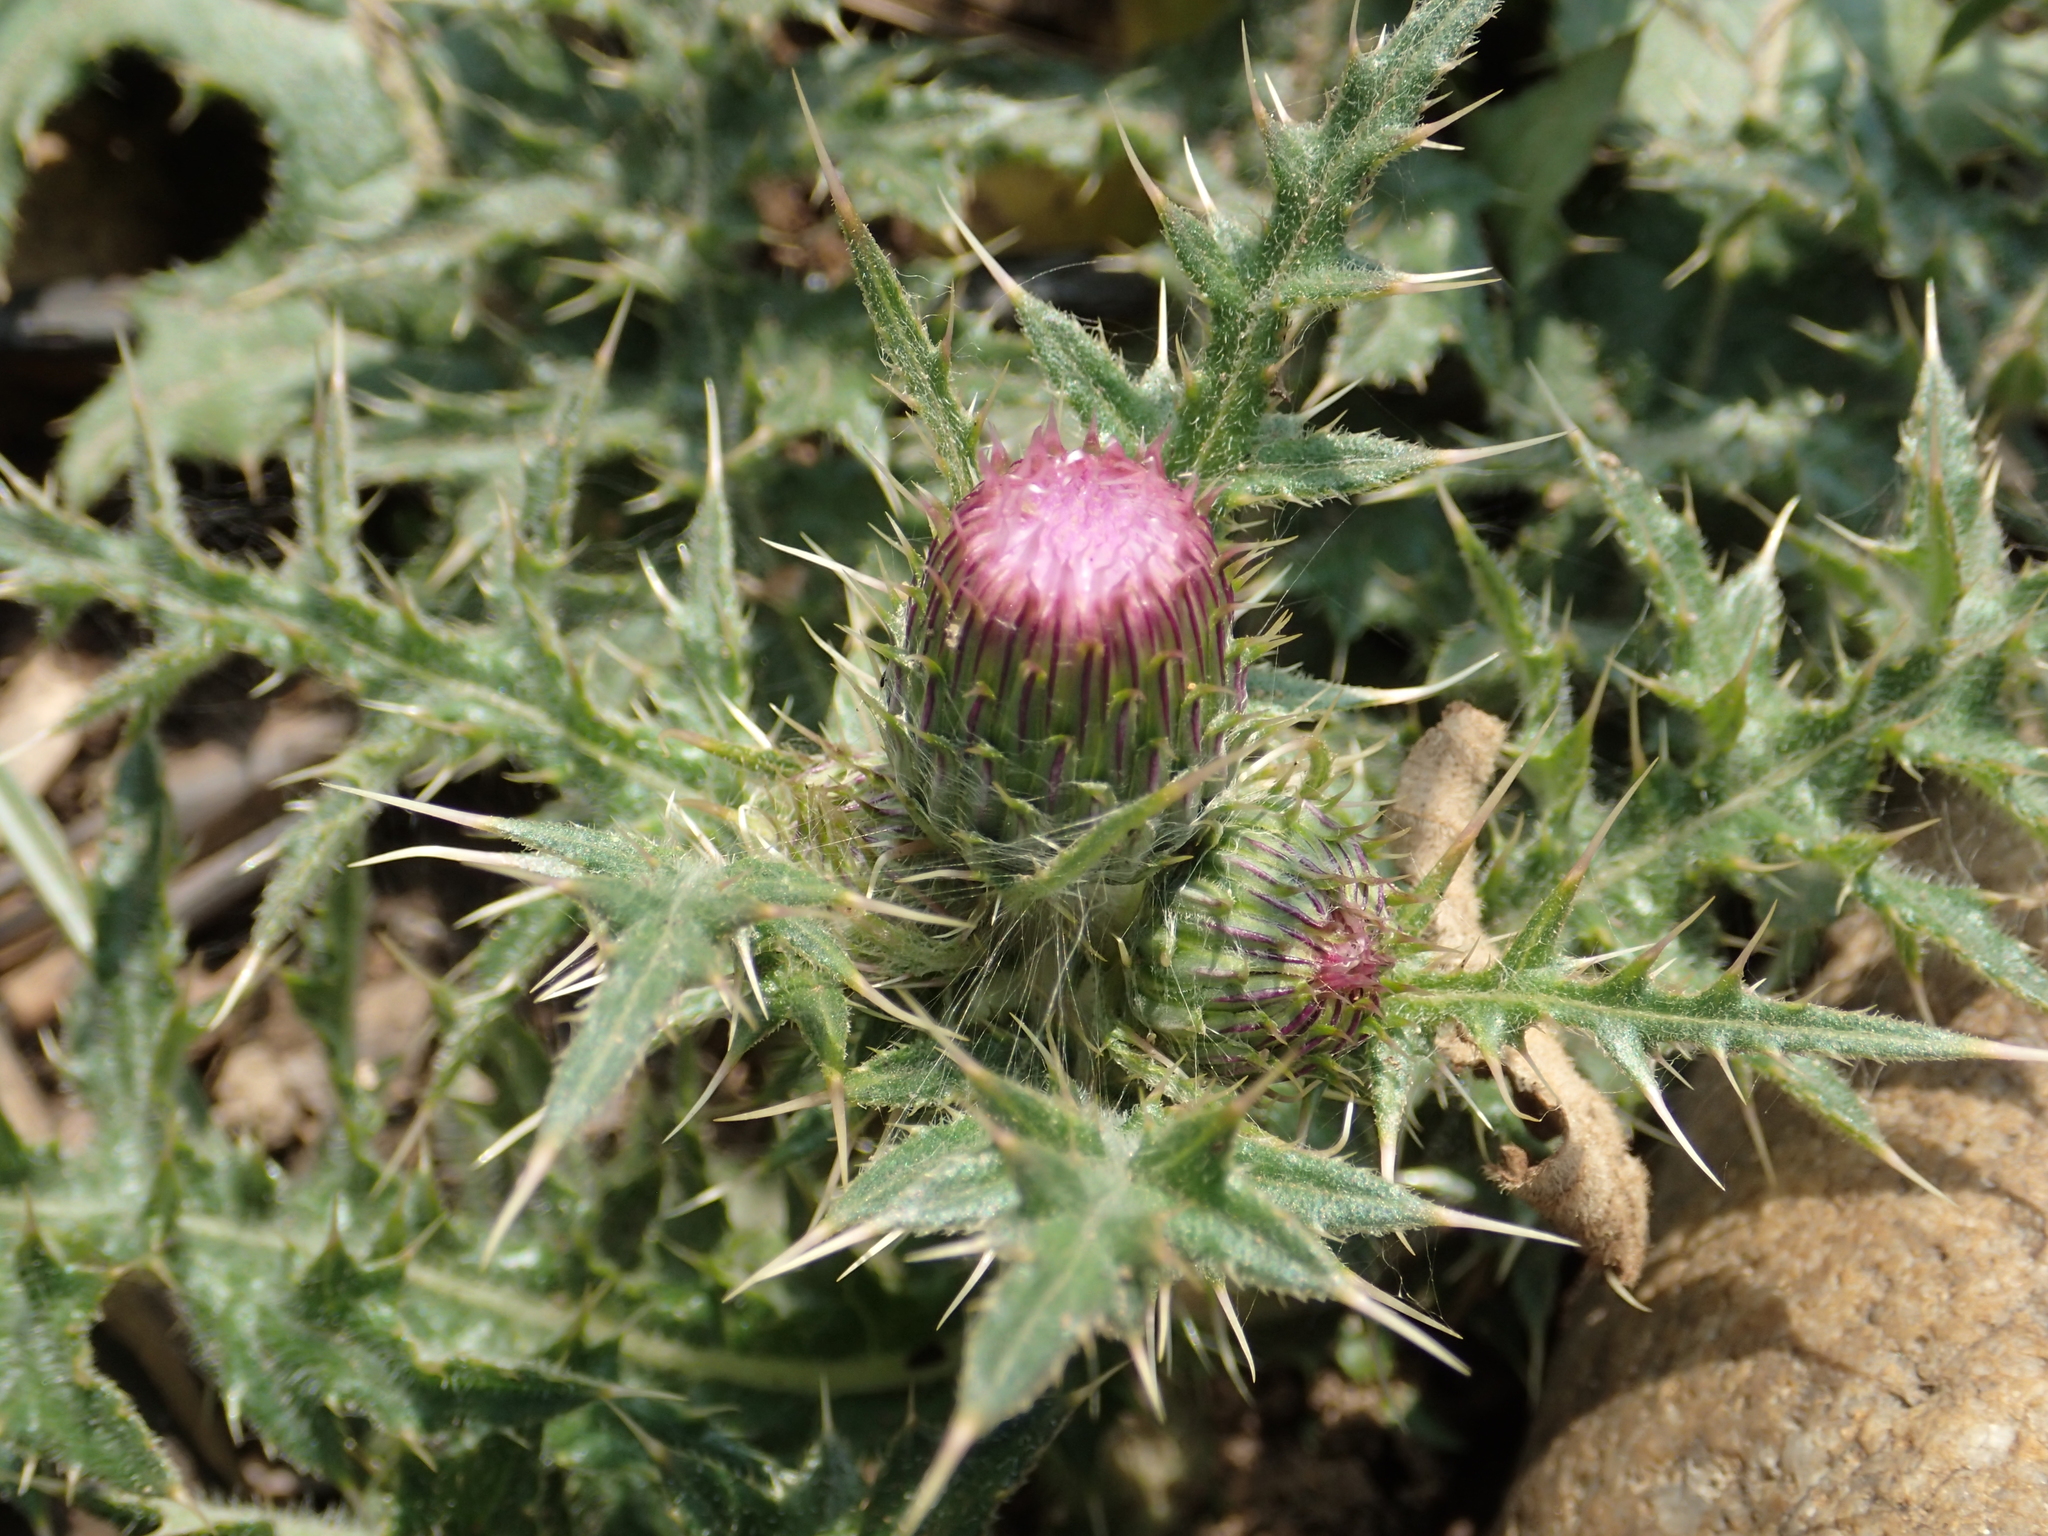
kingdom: Plantae
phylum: Tracheophyta
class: Magnoliopsida
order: Asterales
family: Asteraceae
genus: Cirsium
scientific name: Cirsium japonicum
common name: Japanese thistle
